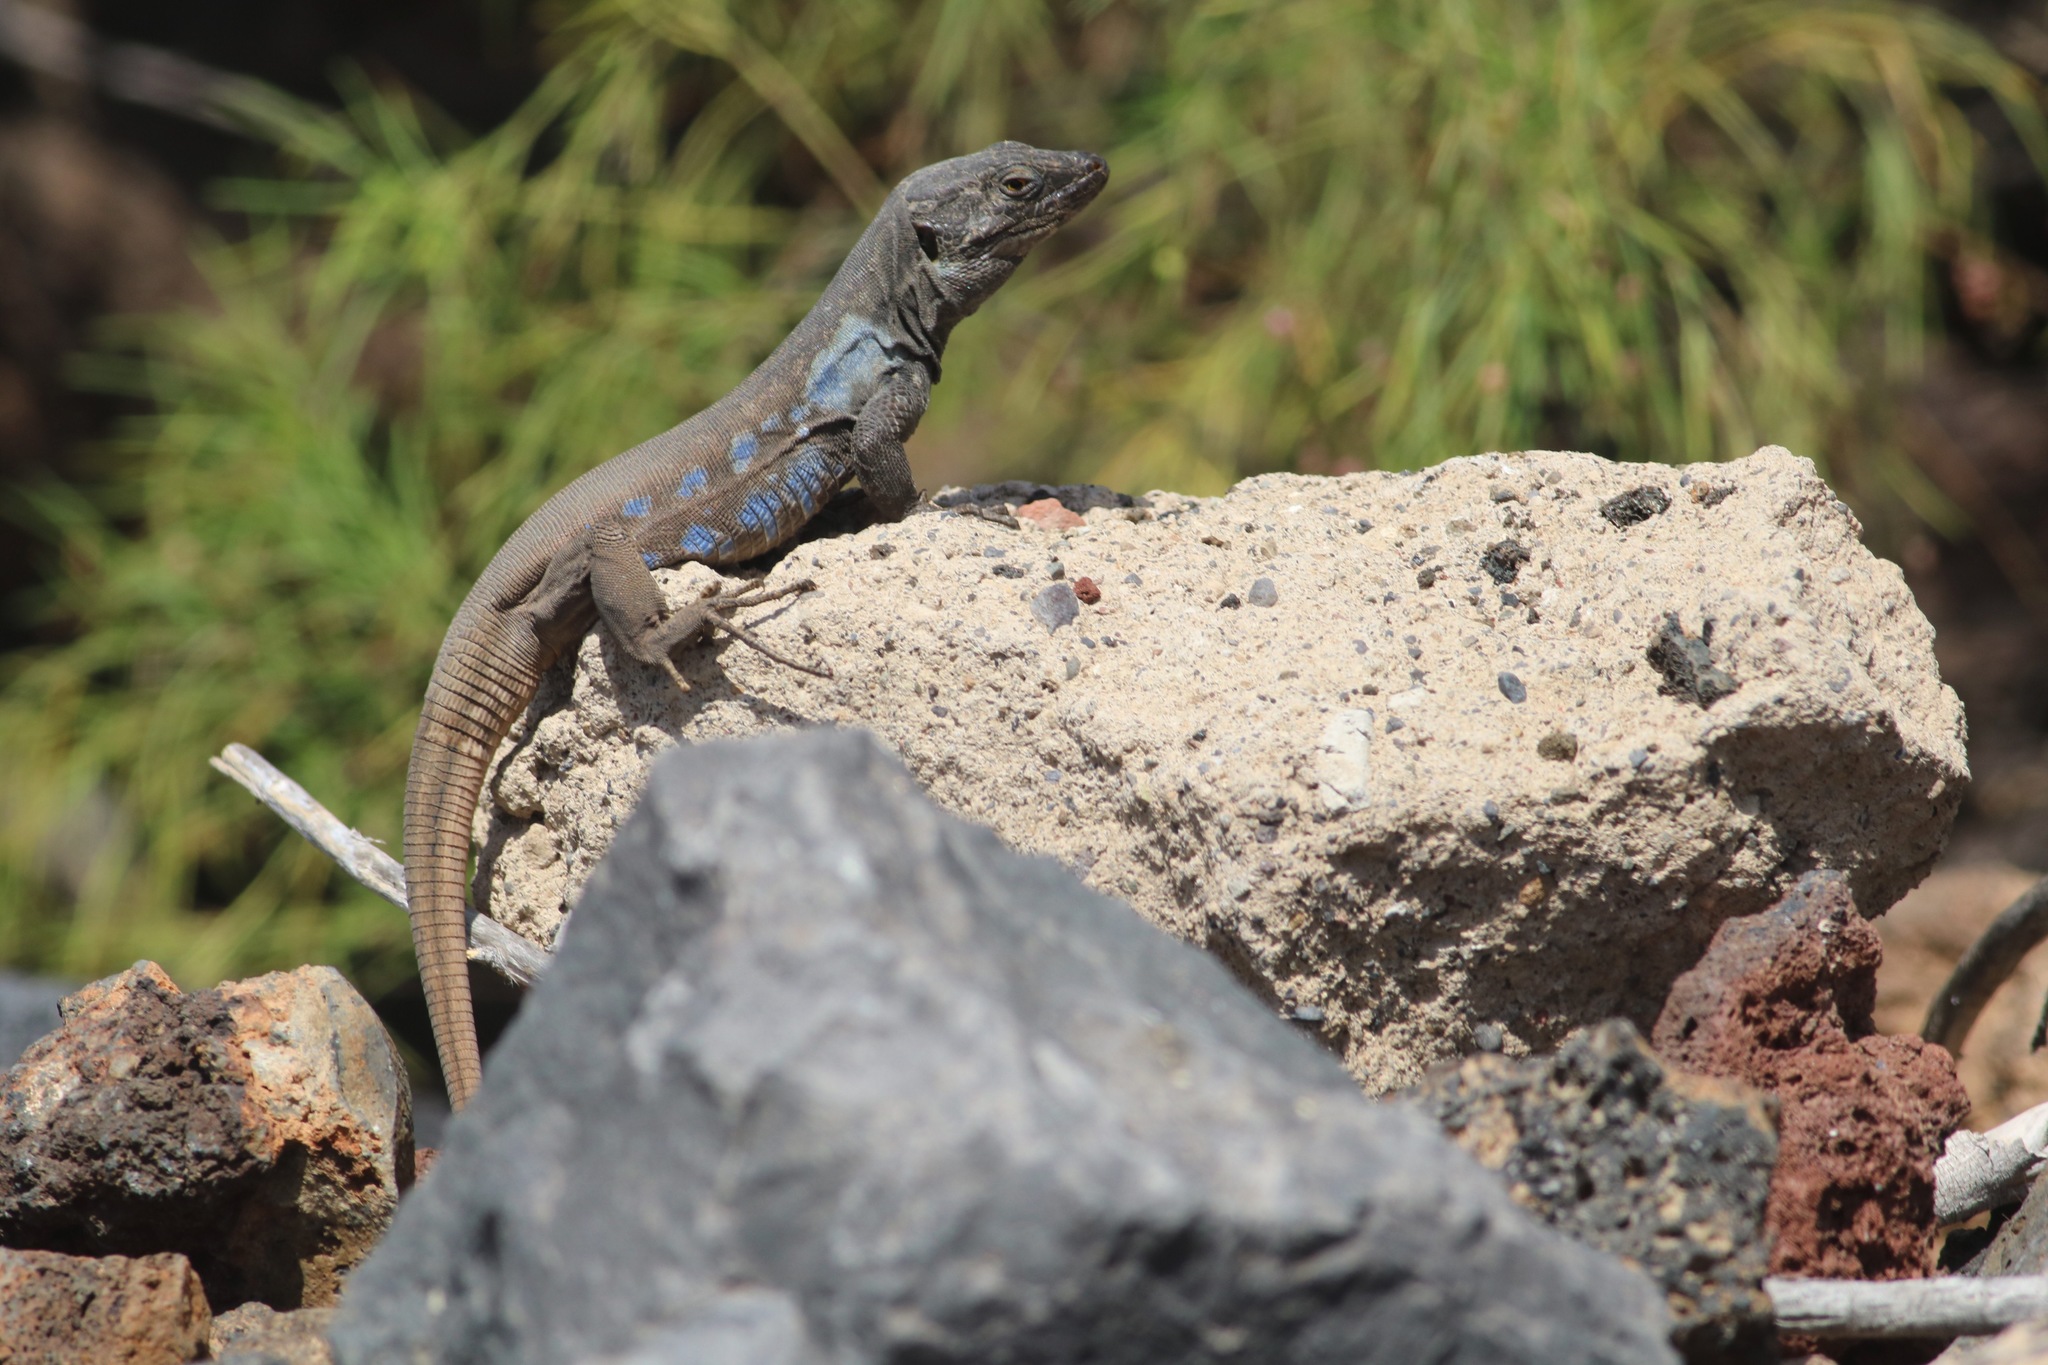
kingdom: Animalia
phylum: Chordata
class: Squamata
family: Lacertidae
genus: Gallotia
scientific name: Gallotia galloti
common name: Gallot's lizard
